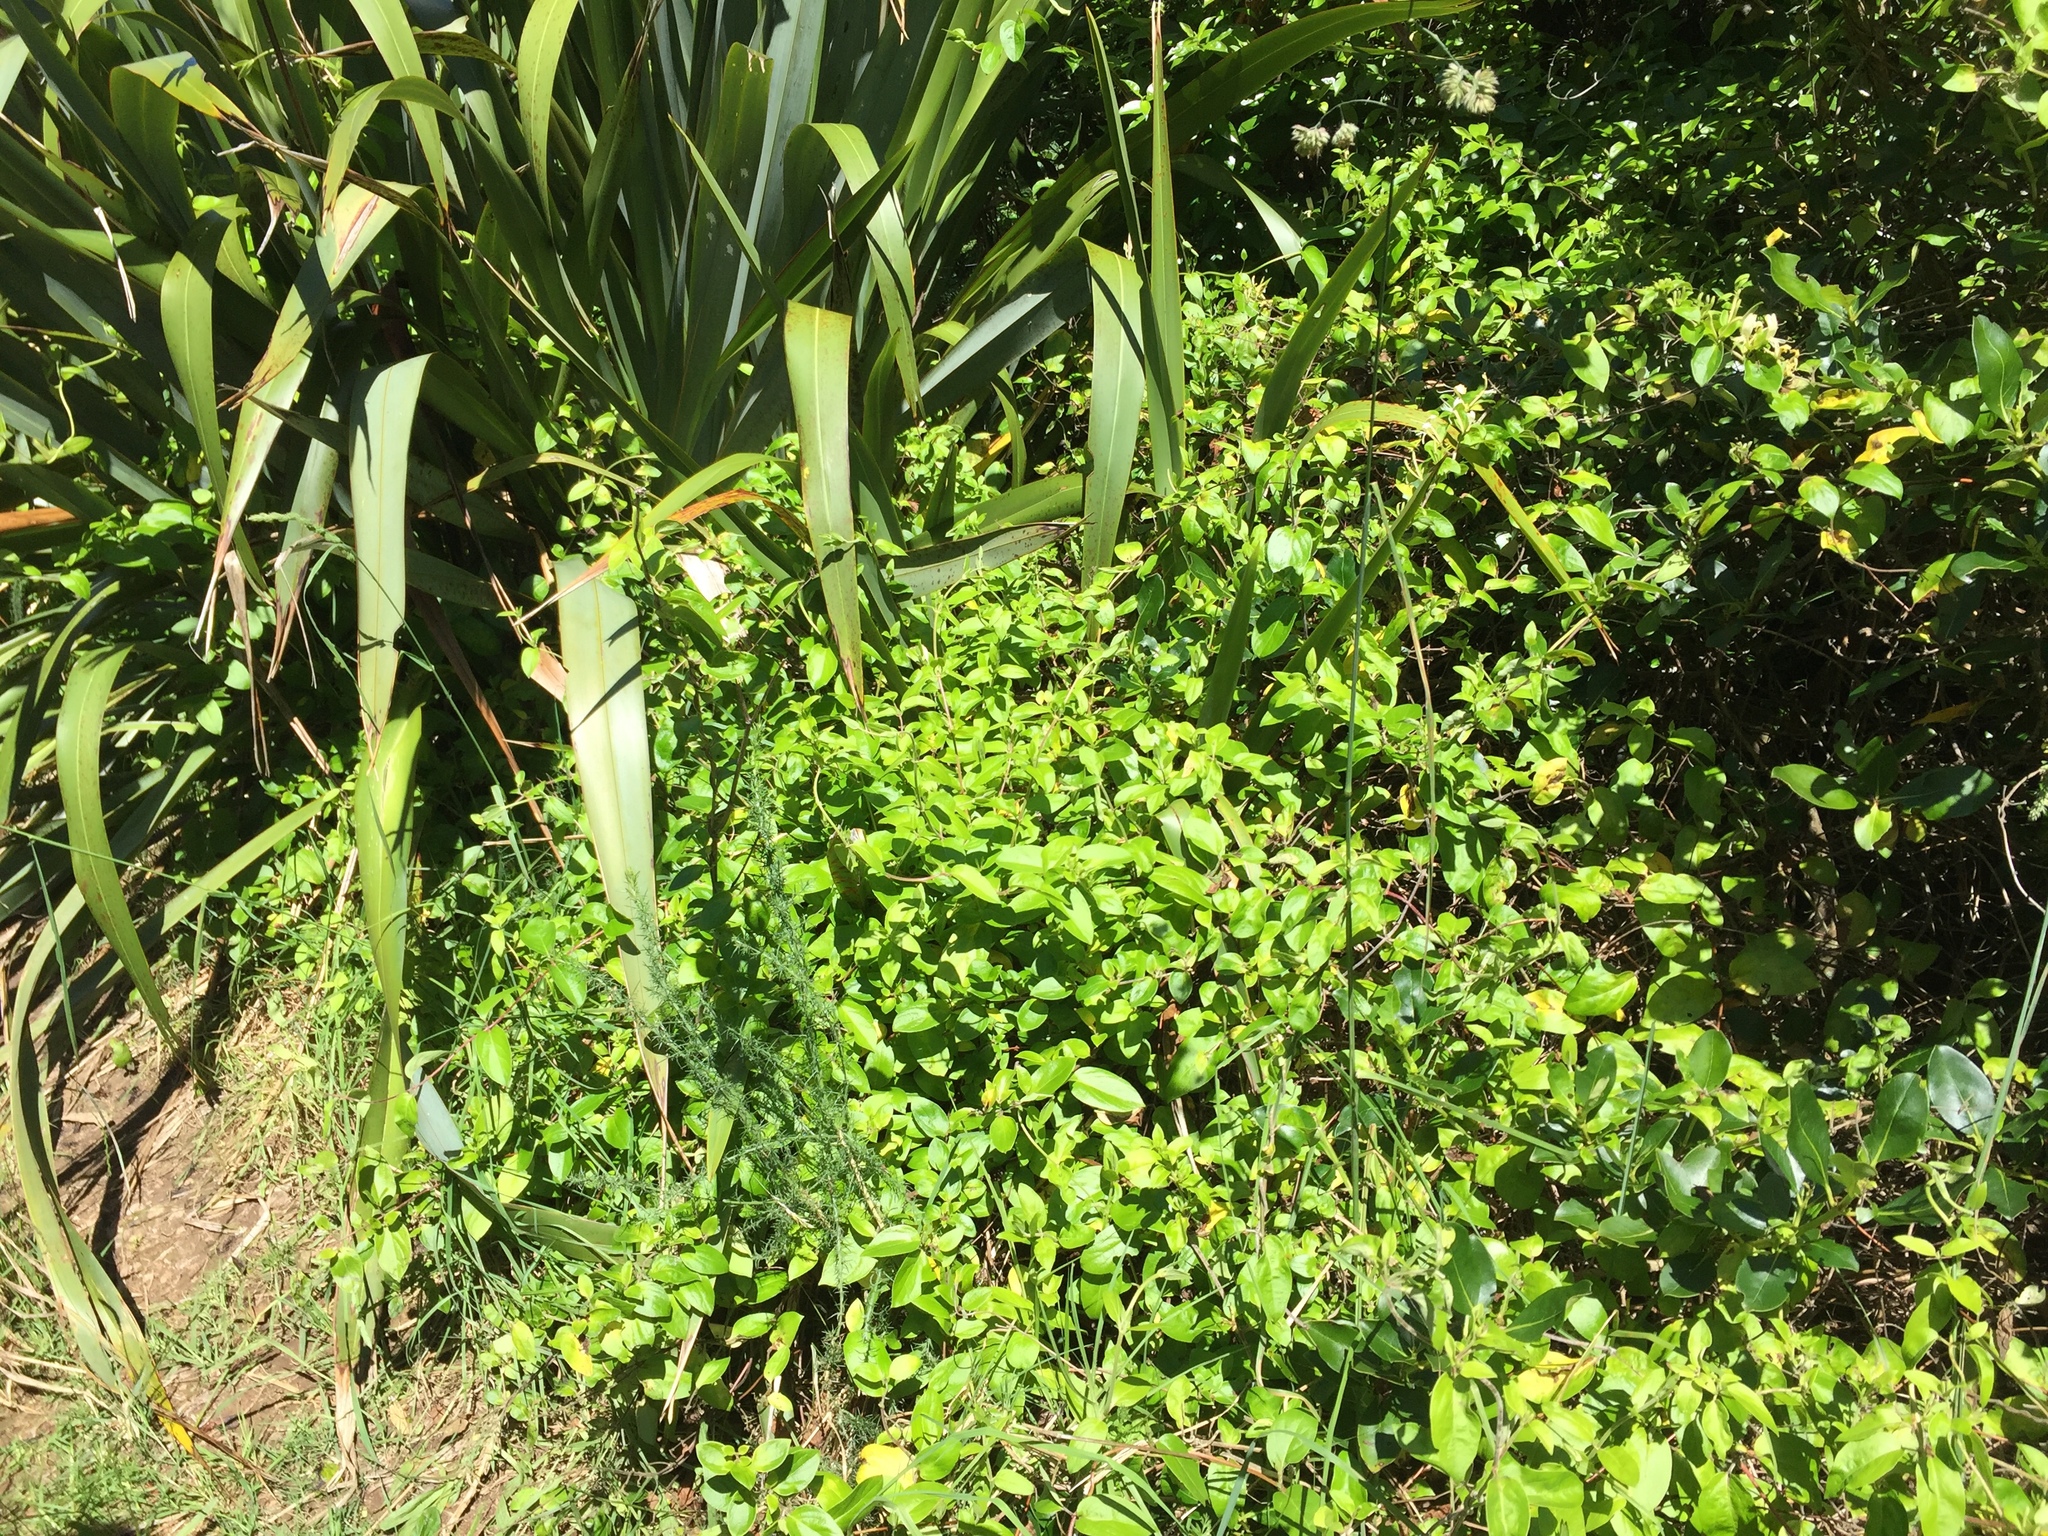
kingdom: Plantae
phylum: Tracheophyta
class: Magnoliopsida
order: Dipsacales
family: Caprifoliaceae
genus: Lonicera
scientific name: Lonicera japonica
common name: Japanese honeysuckle
